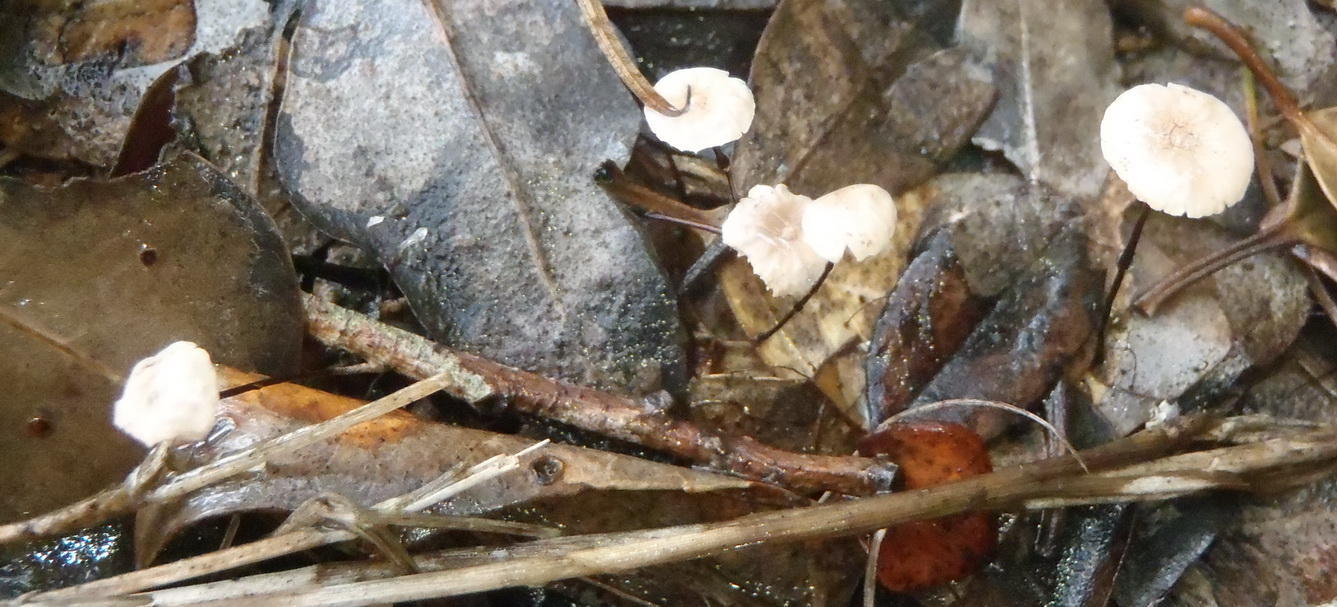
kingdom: Fungi
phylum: Basidiomycota
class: Agaricomycetes
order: Agaricales
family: Omphalotaceae
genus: Gymnopus
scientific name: Gymnopus androsaceus
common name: Horse-hair fungus
